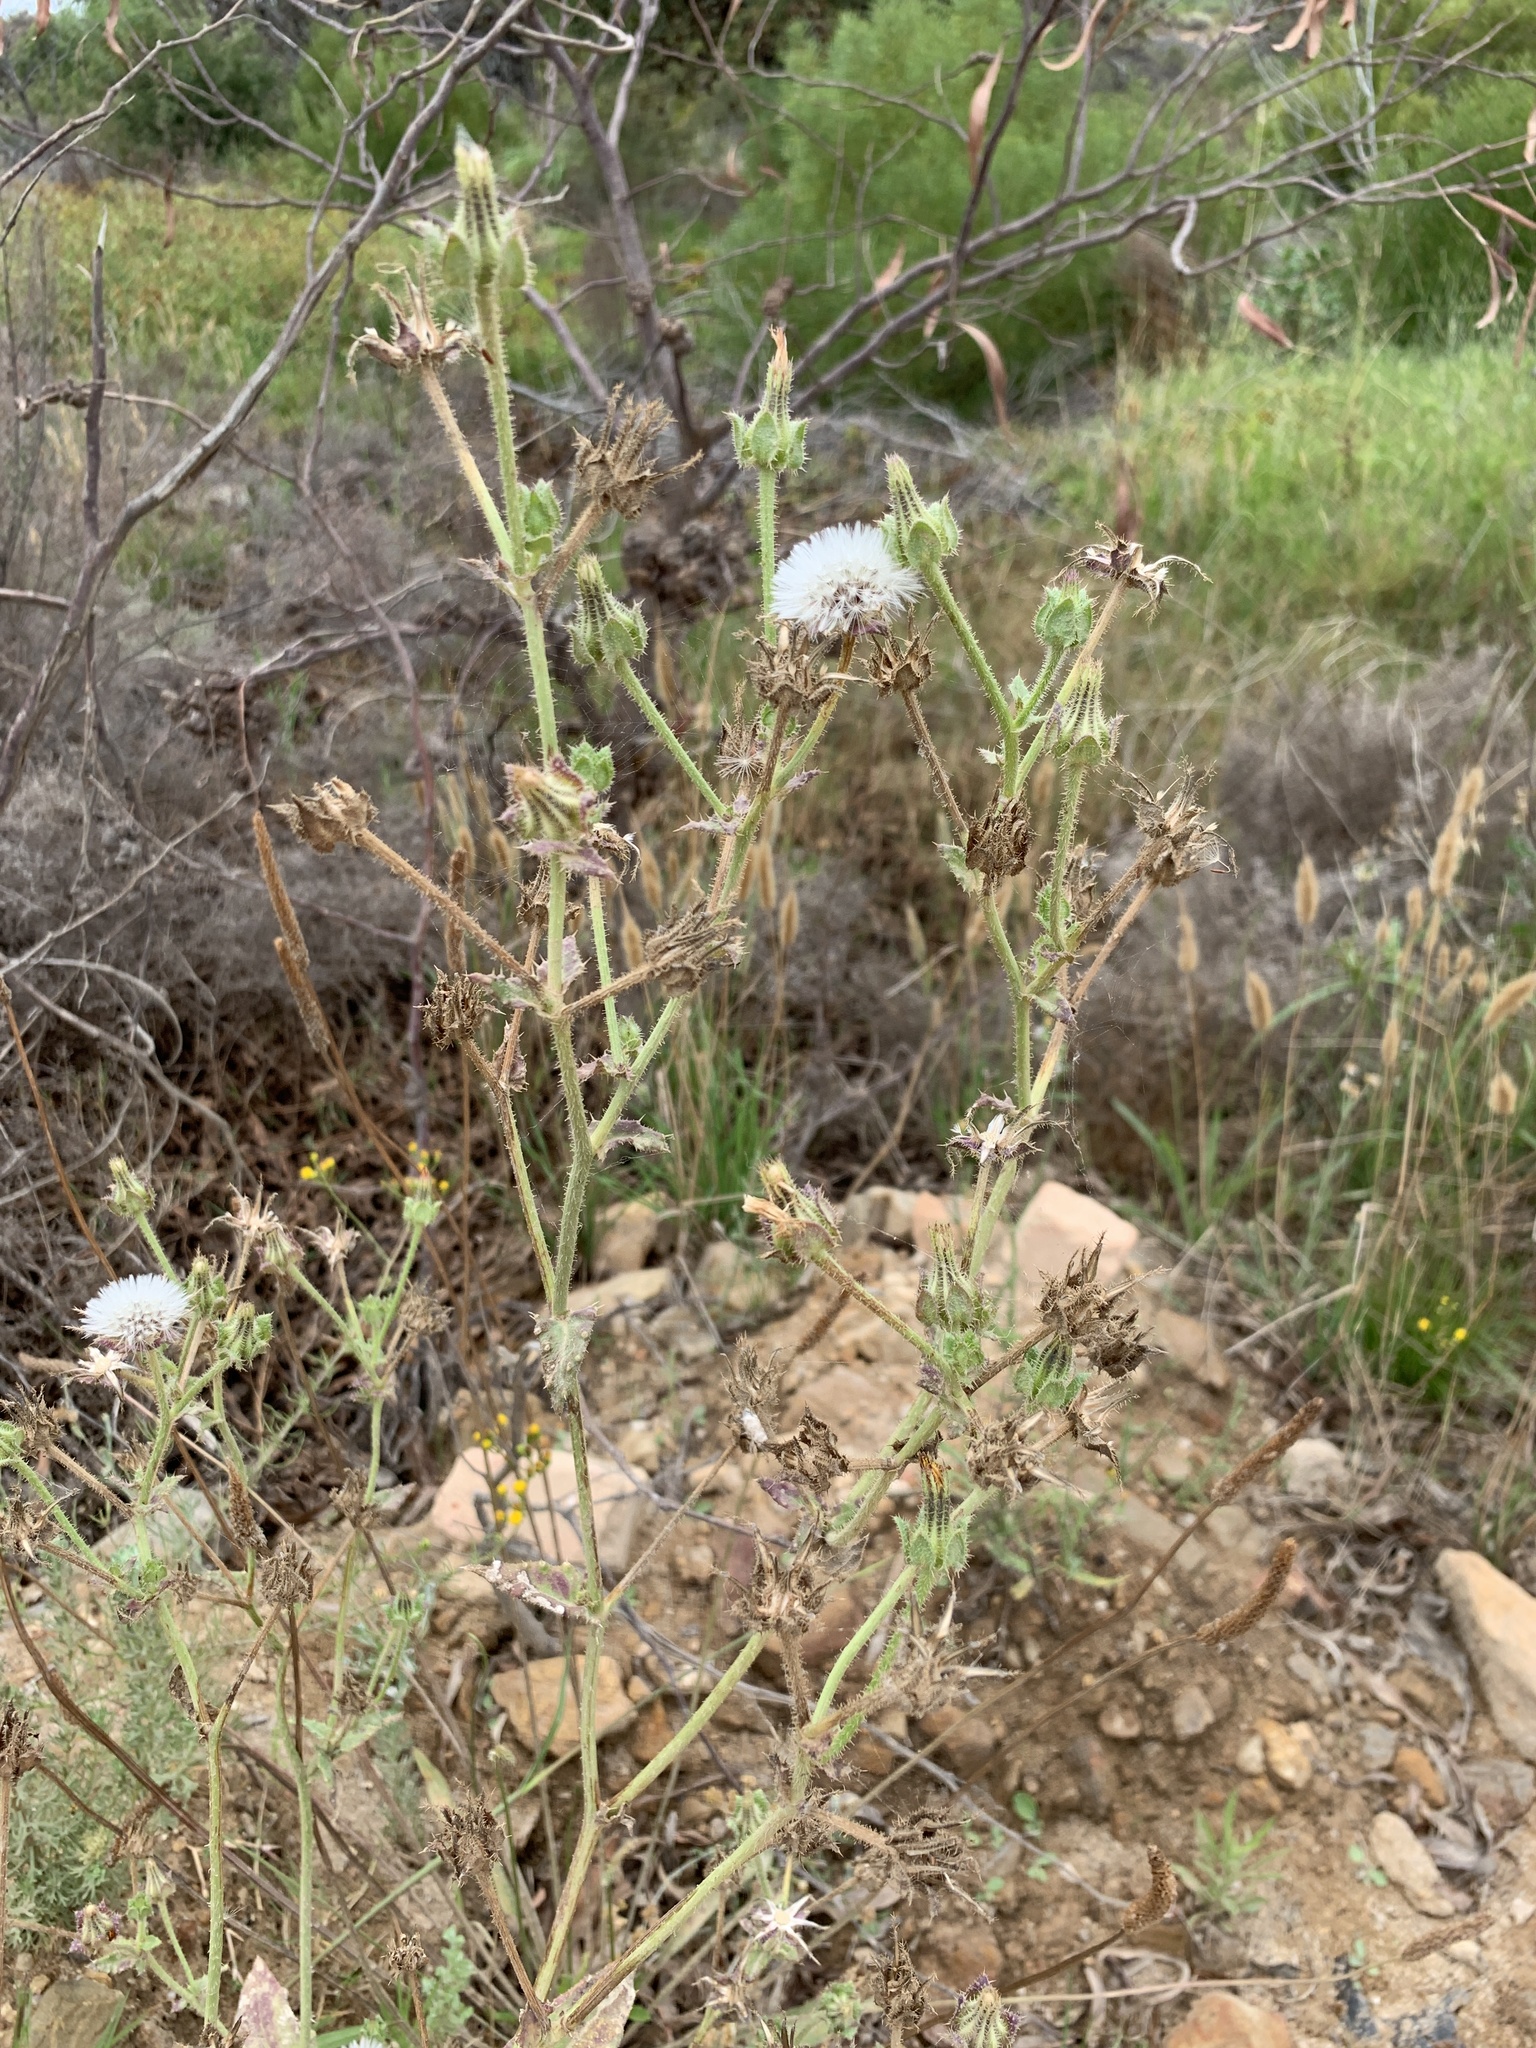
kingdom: Plantae
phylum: Tracheophyta
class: Magnoliopsida
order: Asterales
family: Asteraceae
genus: Helminthotheca
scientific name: Helminthotheca echioides
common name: Ox-tongue
